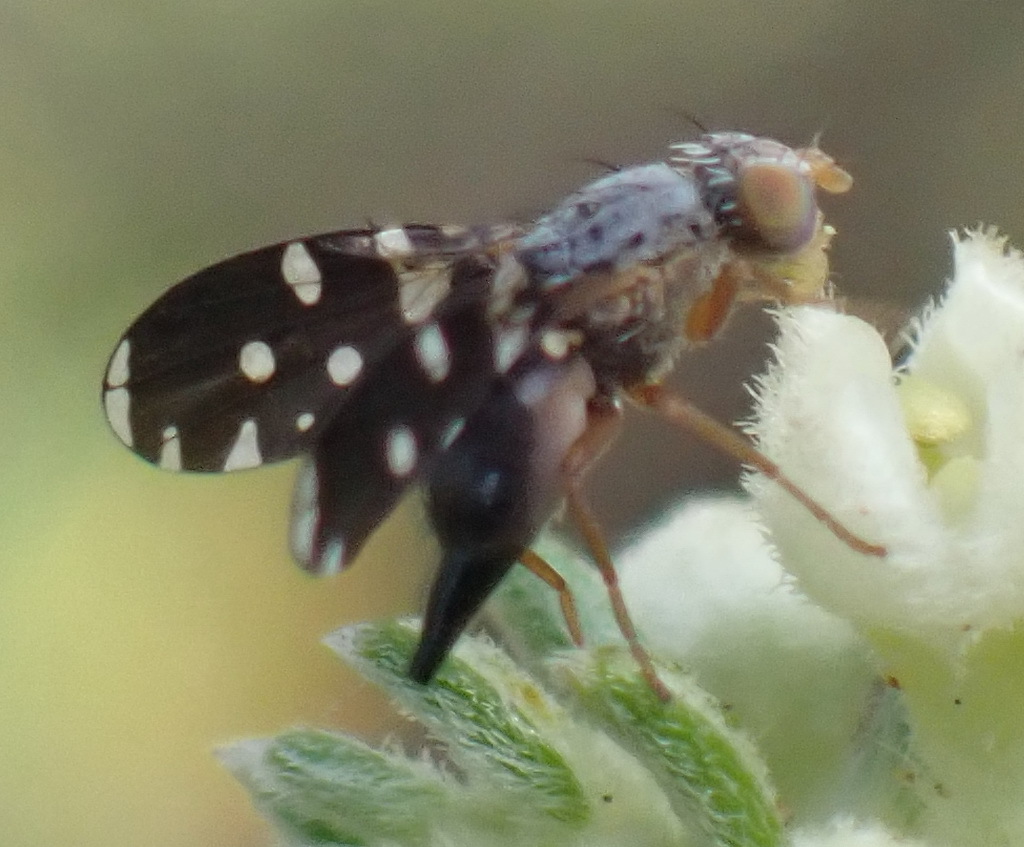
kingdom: Animalia
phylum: Arthropoda
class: Insecta
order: Diptera
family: Tephritidae
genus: Spathulina
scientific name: Spathulina arcucincta
